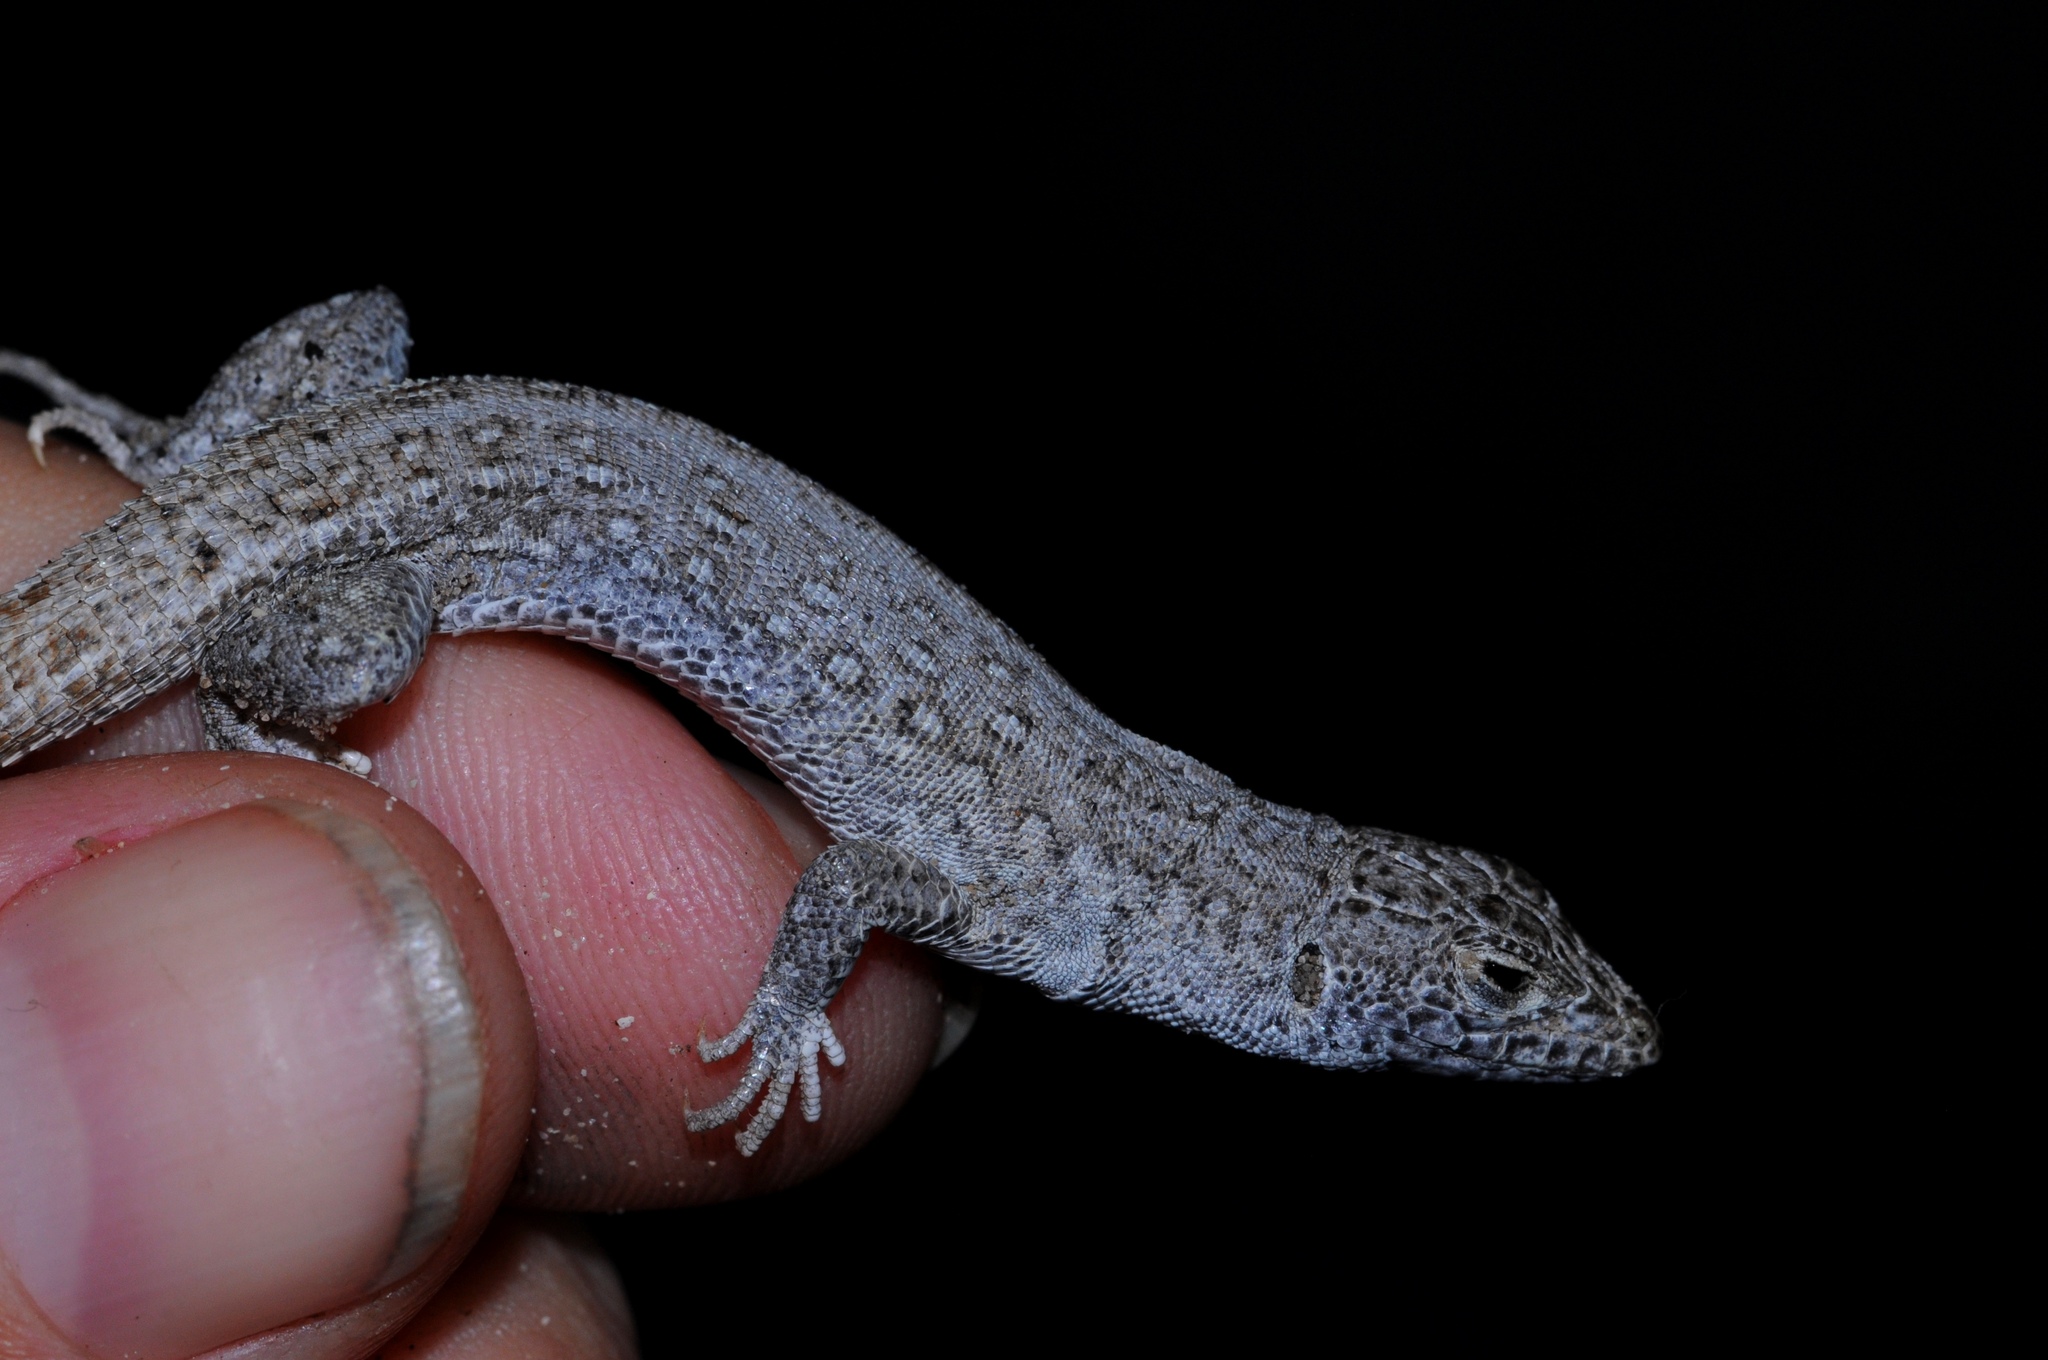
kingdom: Animalia
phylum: Chordata
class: Squamata
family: Lacertidae
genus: Meroles
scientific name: Meroles knoxii
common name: Knox's desert lizard
